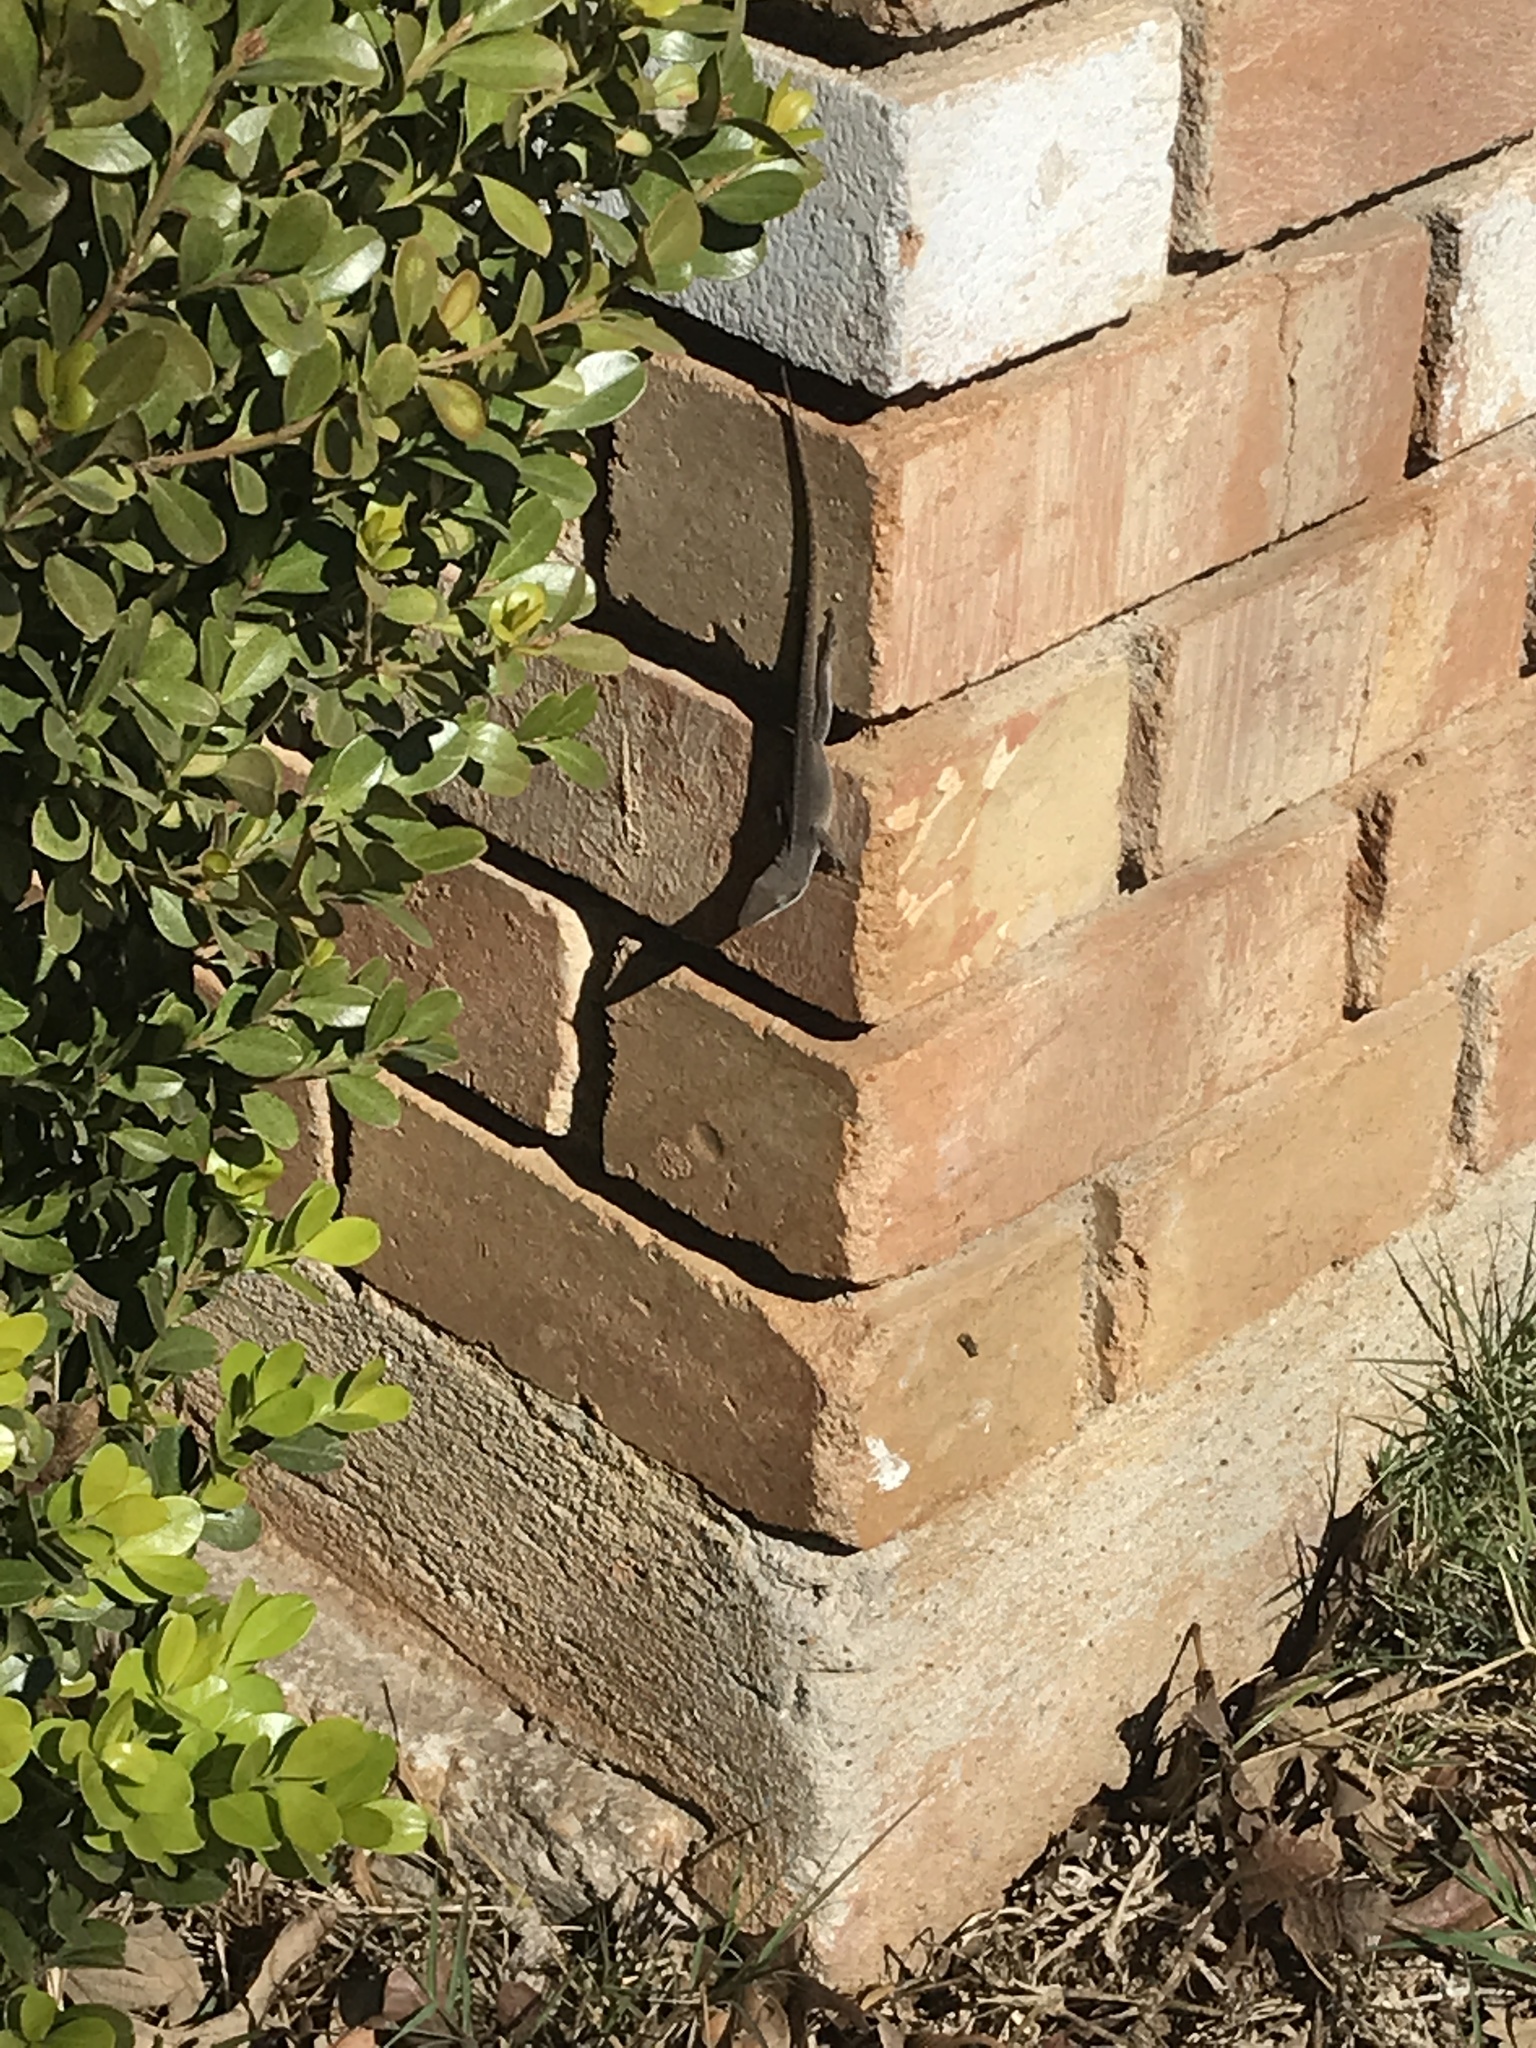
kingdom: Animalia
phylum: Chordata
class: Squamata
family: Dactyloidae
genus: Anolis
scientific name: Anolis carolinensis
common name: Green anole
